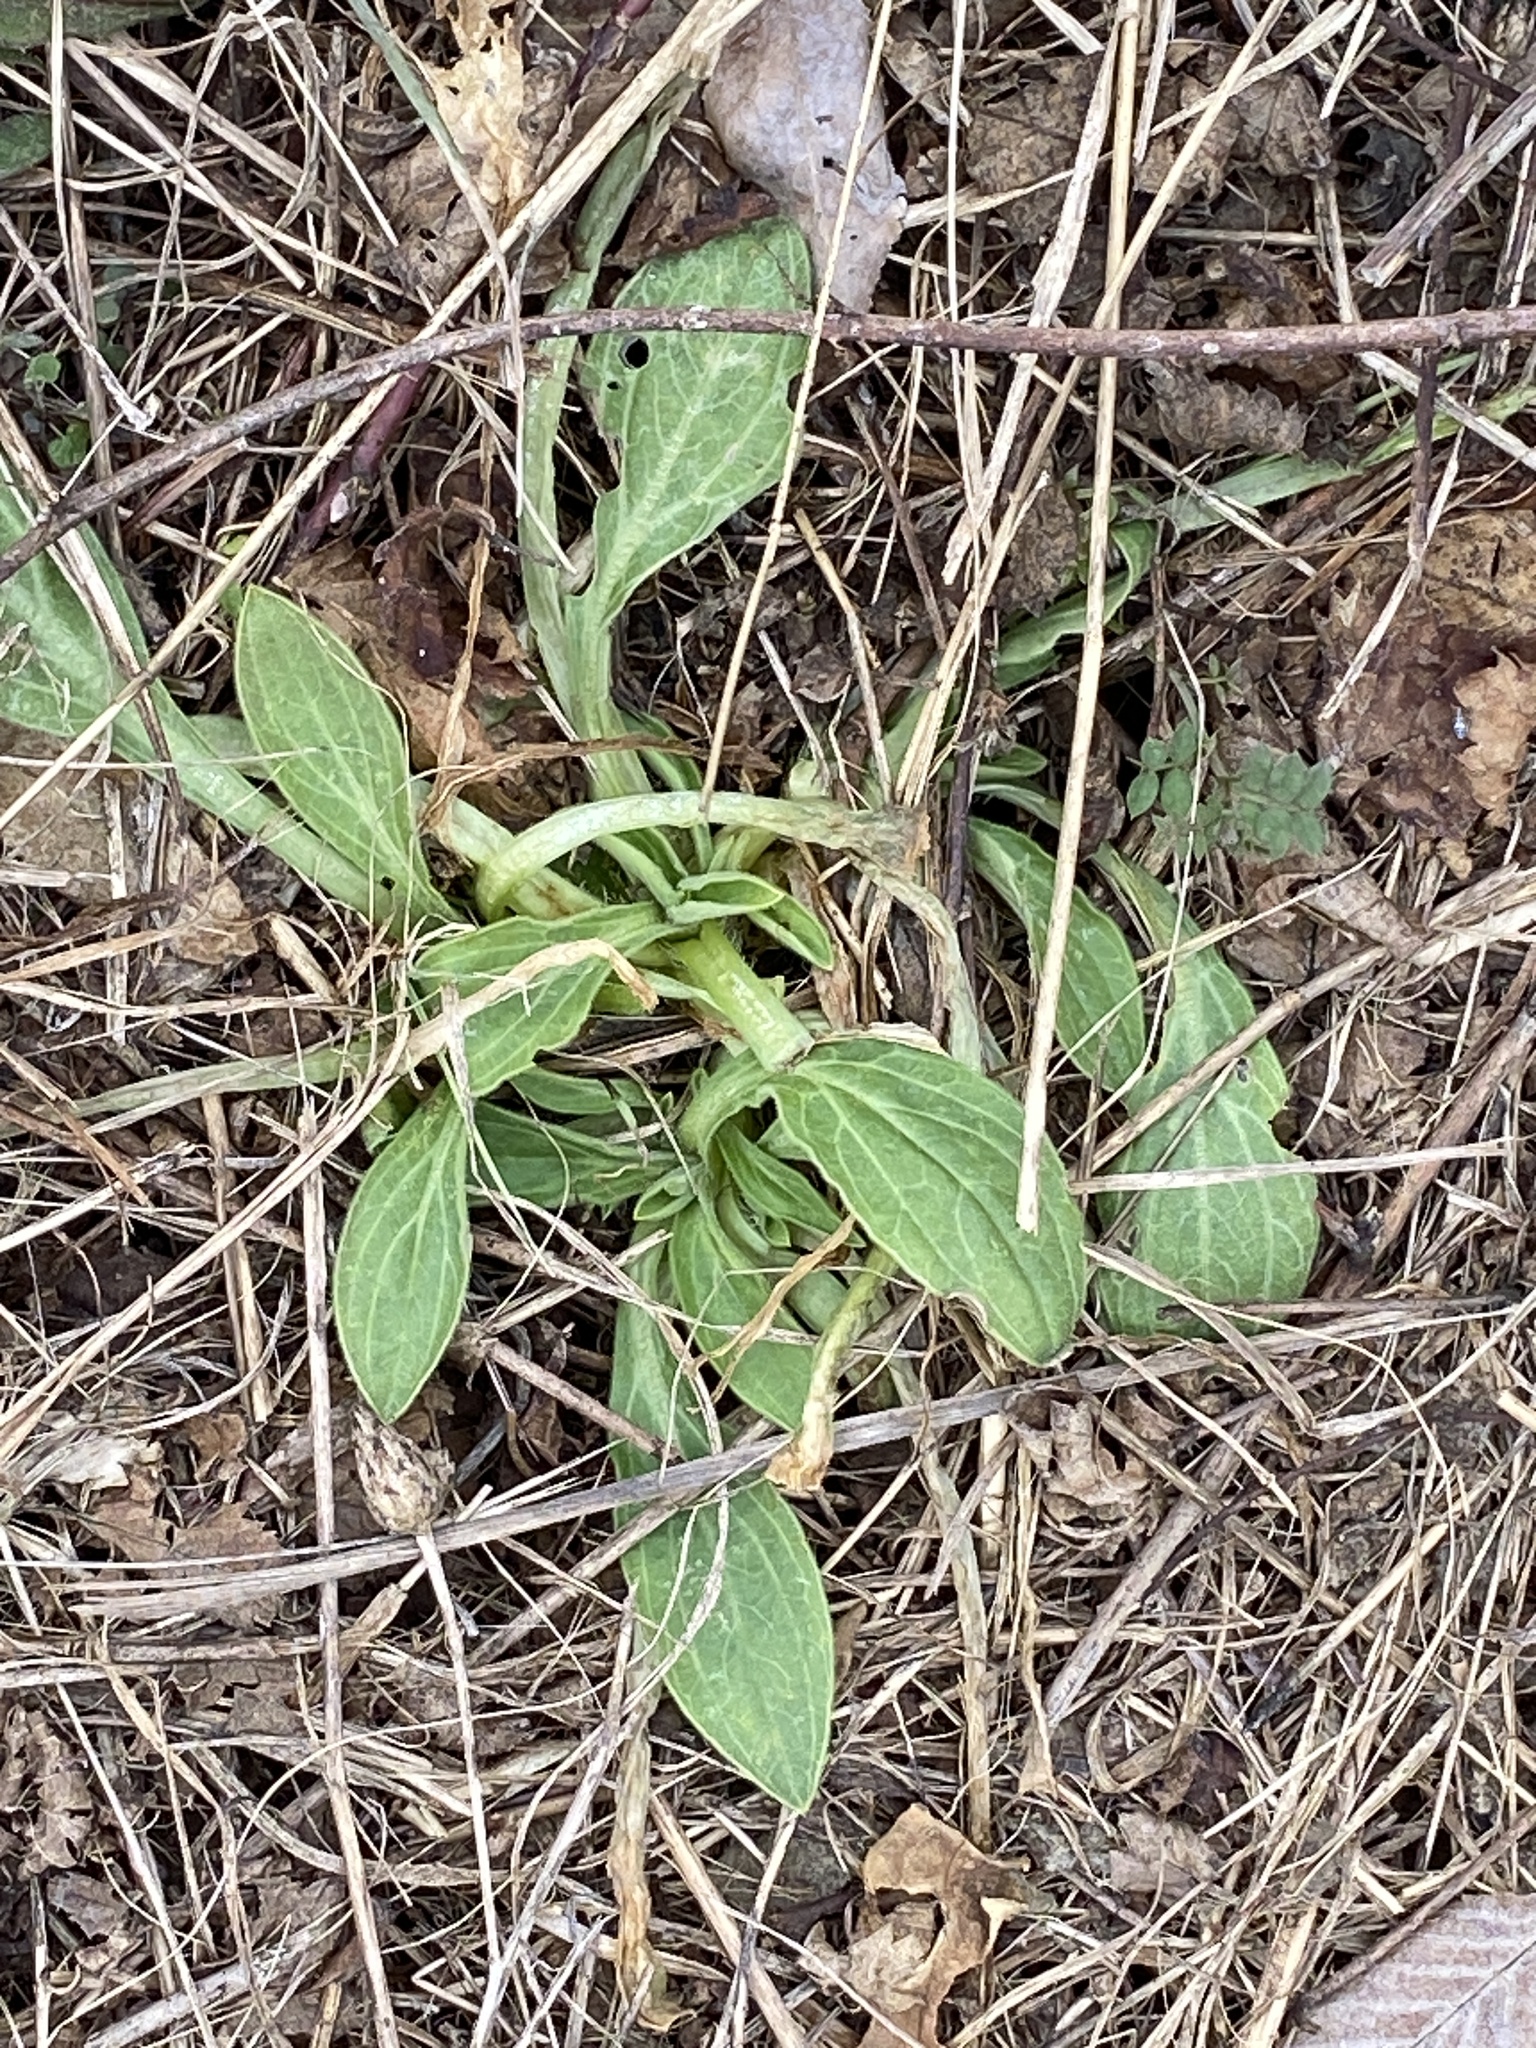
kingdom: Plantae
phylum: Tracheophyta
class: Magnoliopsida
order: Caryophyllales
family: Caryophyllaceae
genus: Silene
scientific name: Silene latifolia
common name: White campion
